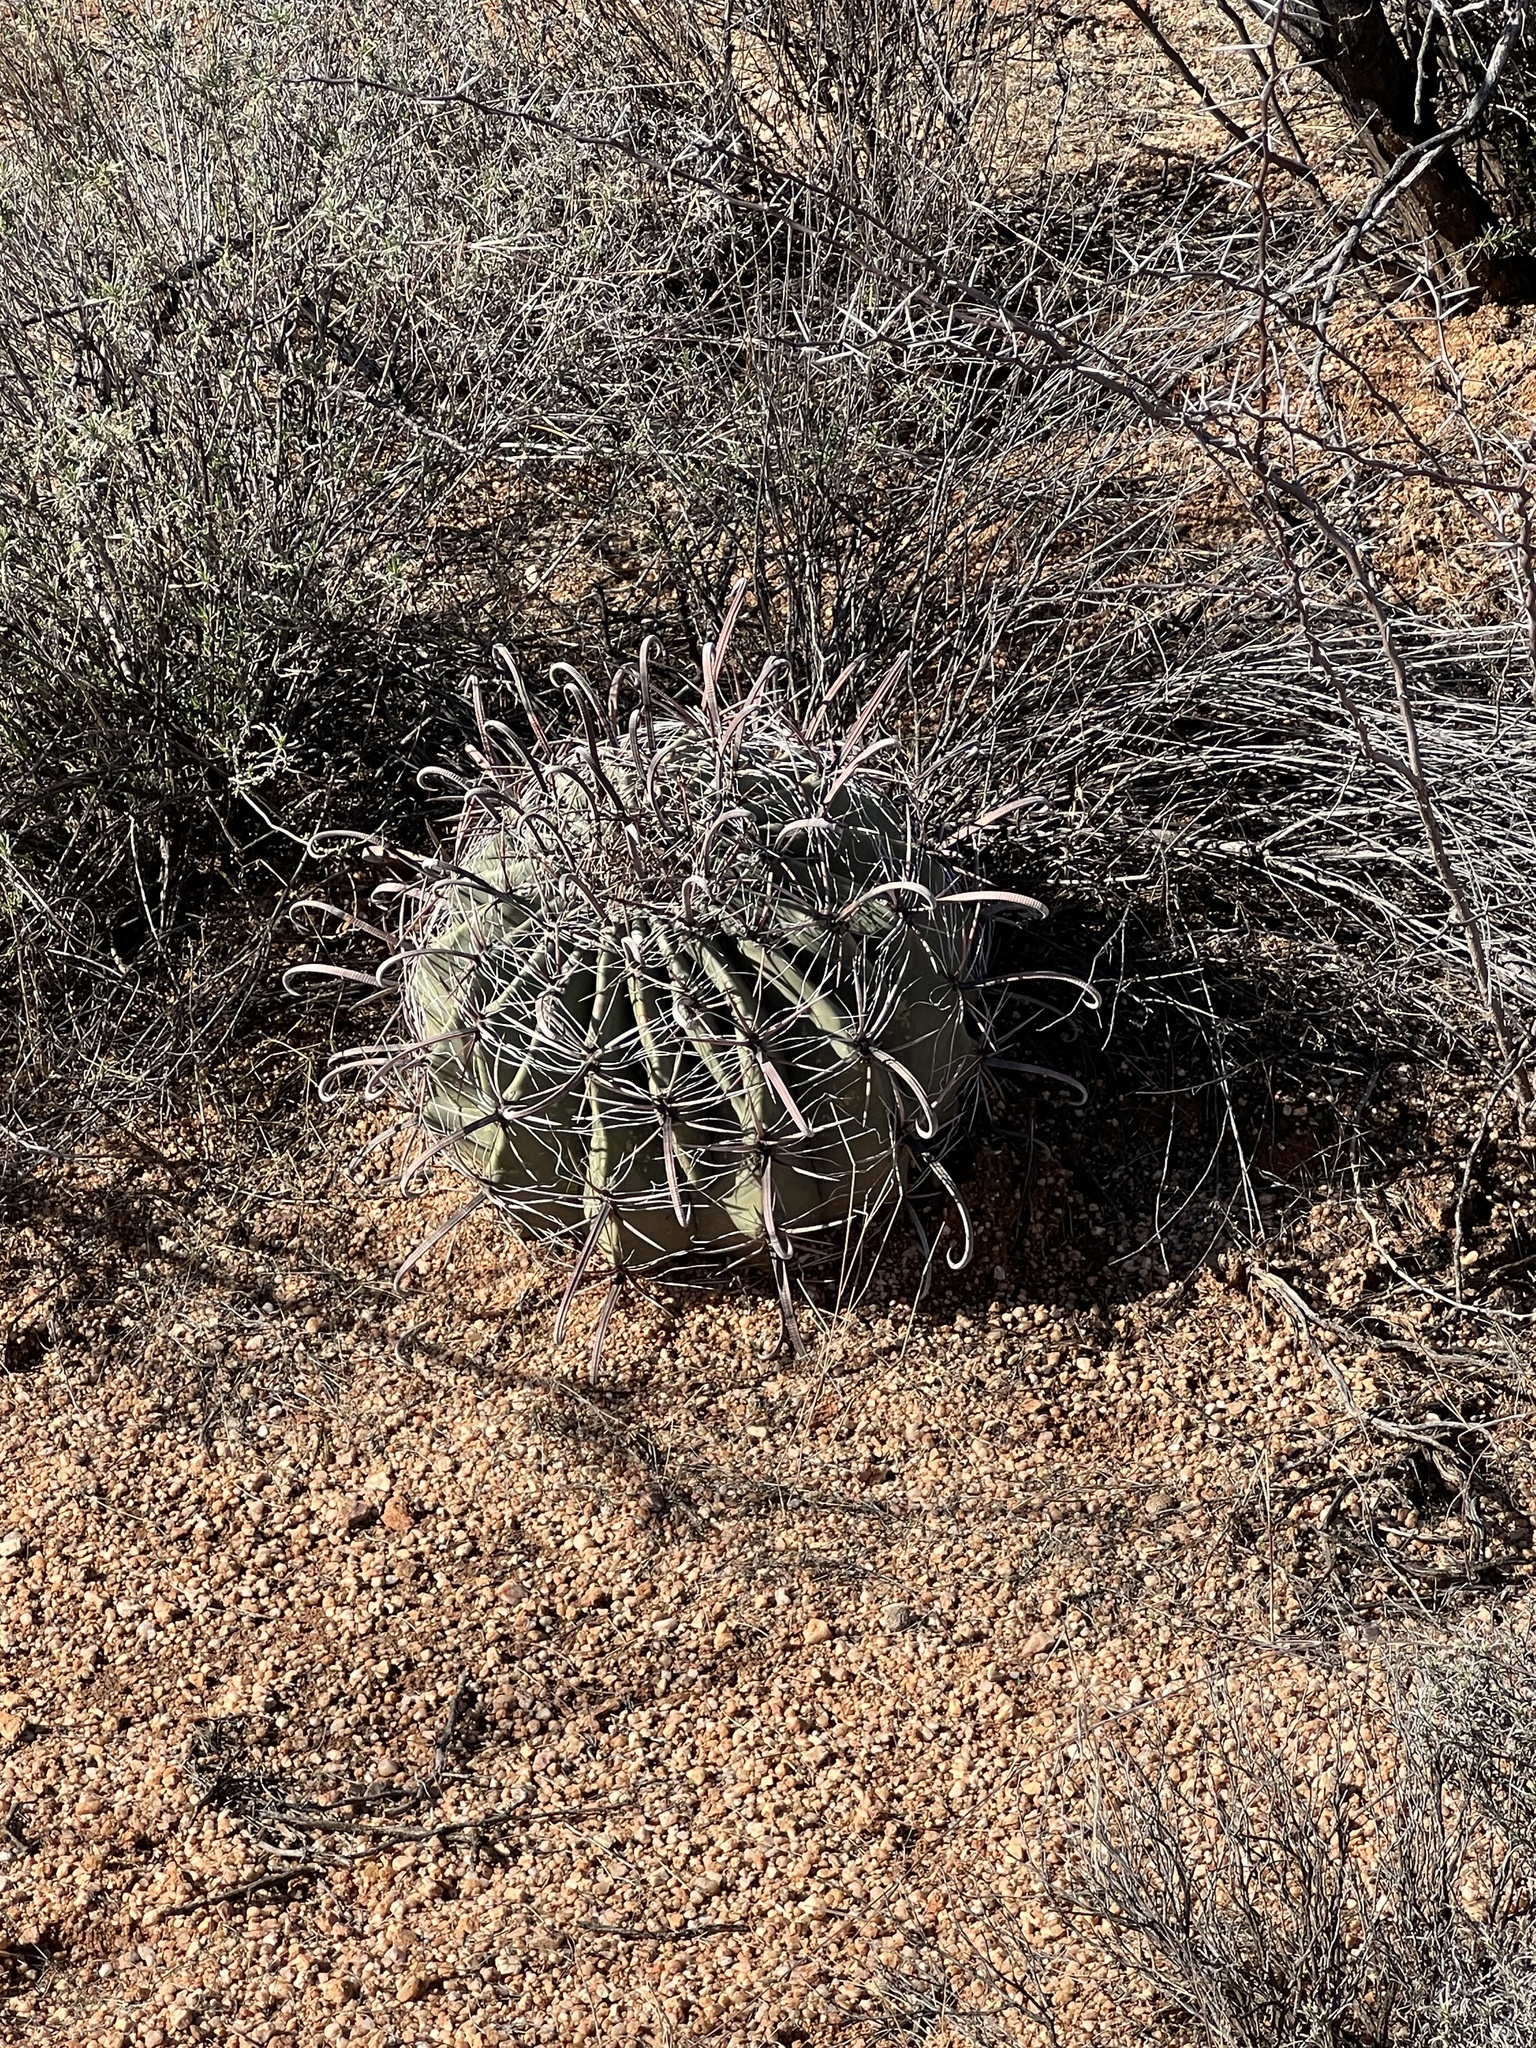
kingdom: Plantae
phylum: Tracheophyta
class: Magnoliopsida
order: Caryophyllales
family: Cactaceae
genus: Ferocactus
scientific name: Ferocactus wislizeni
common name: Candy barrel cactus
